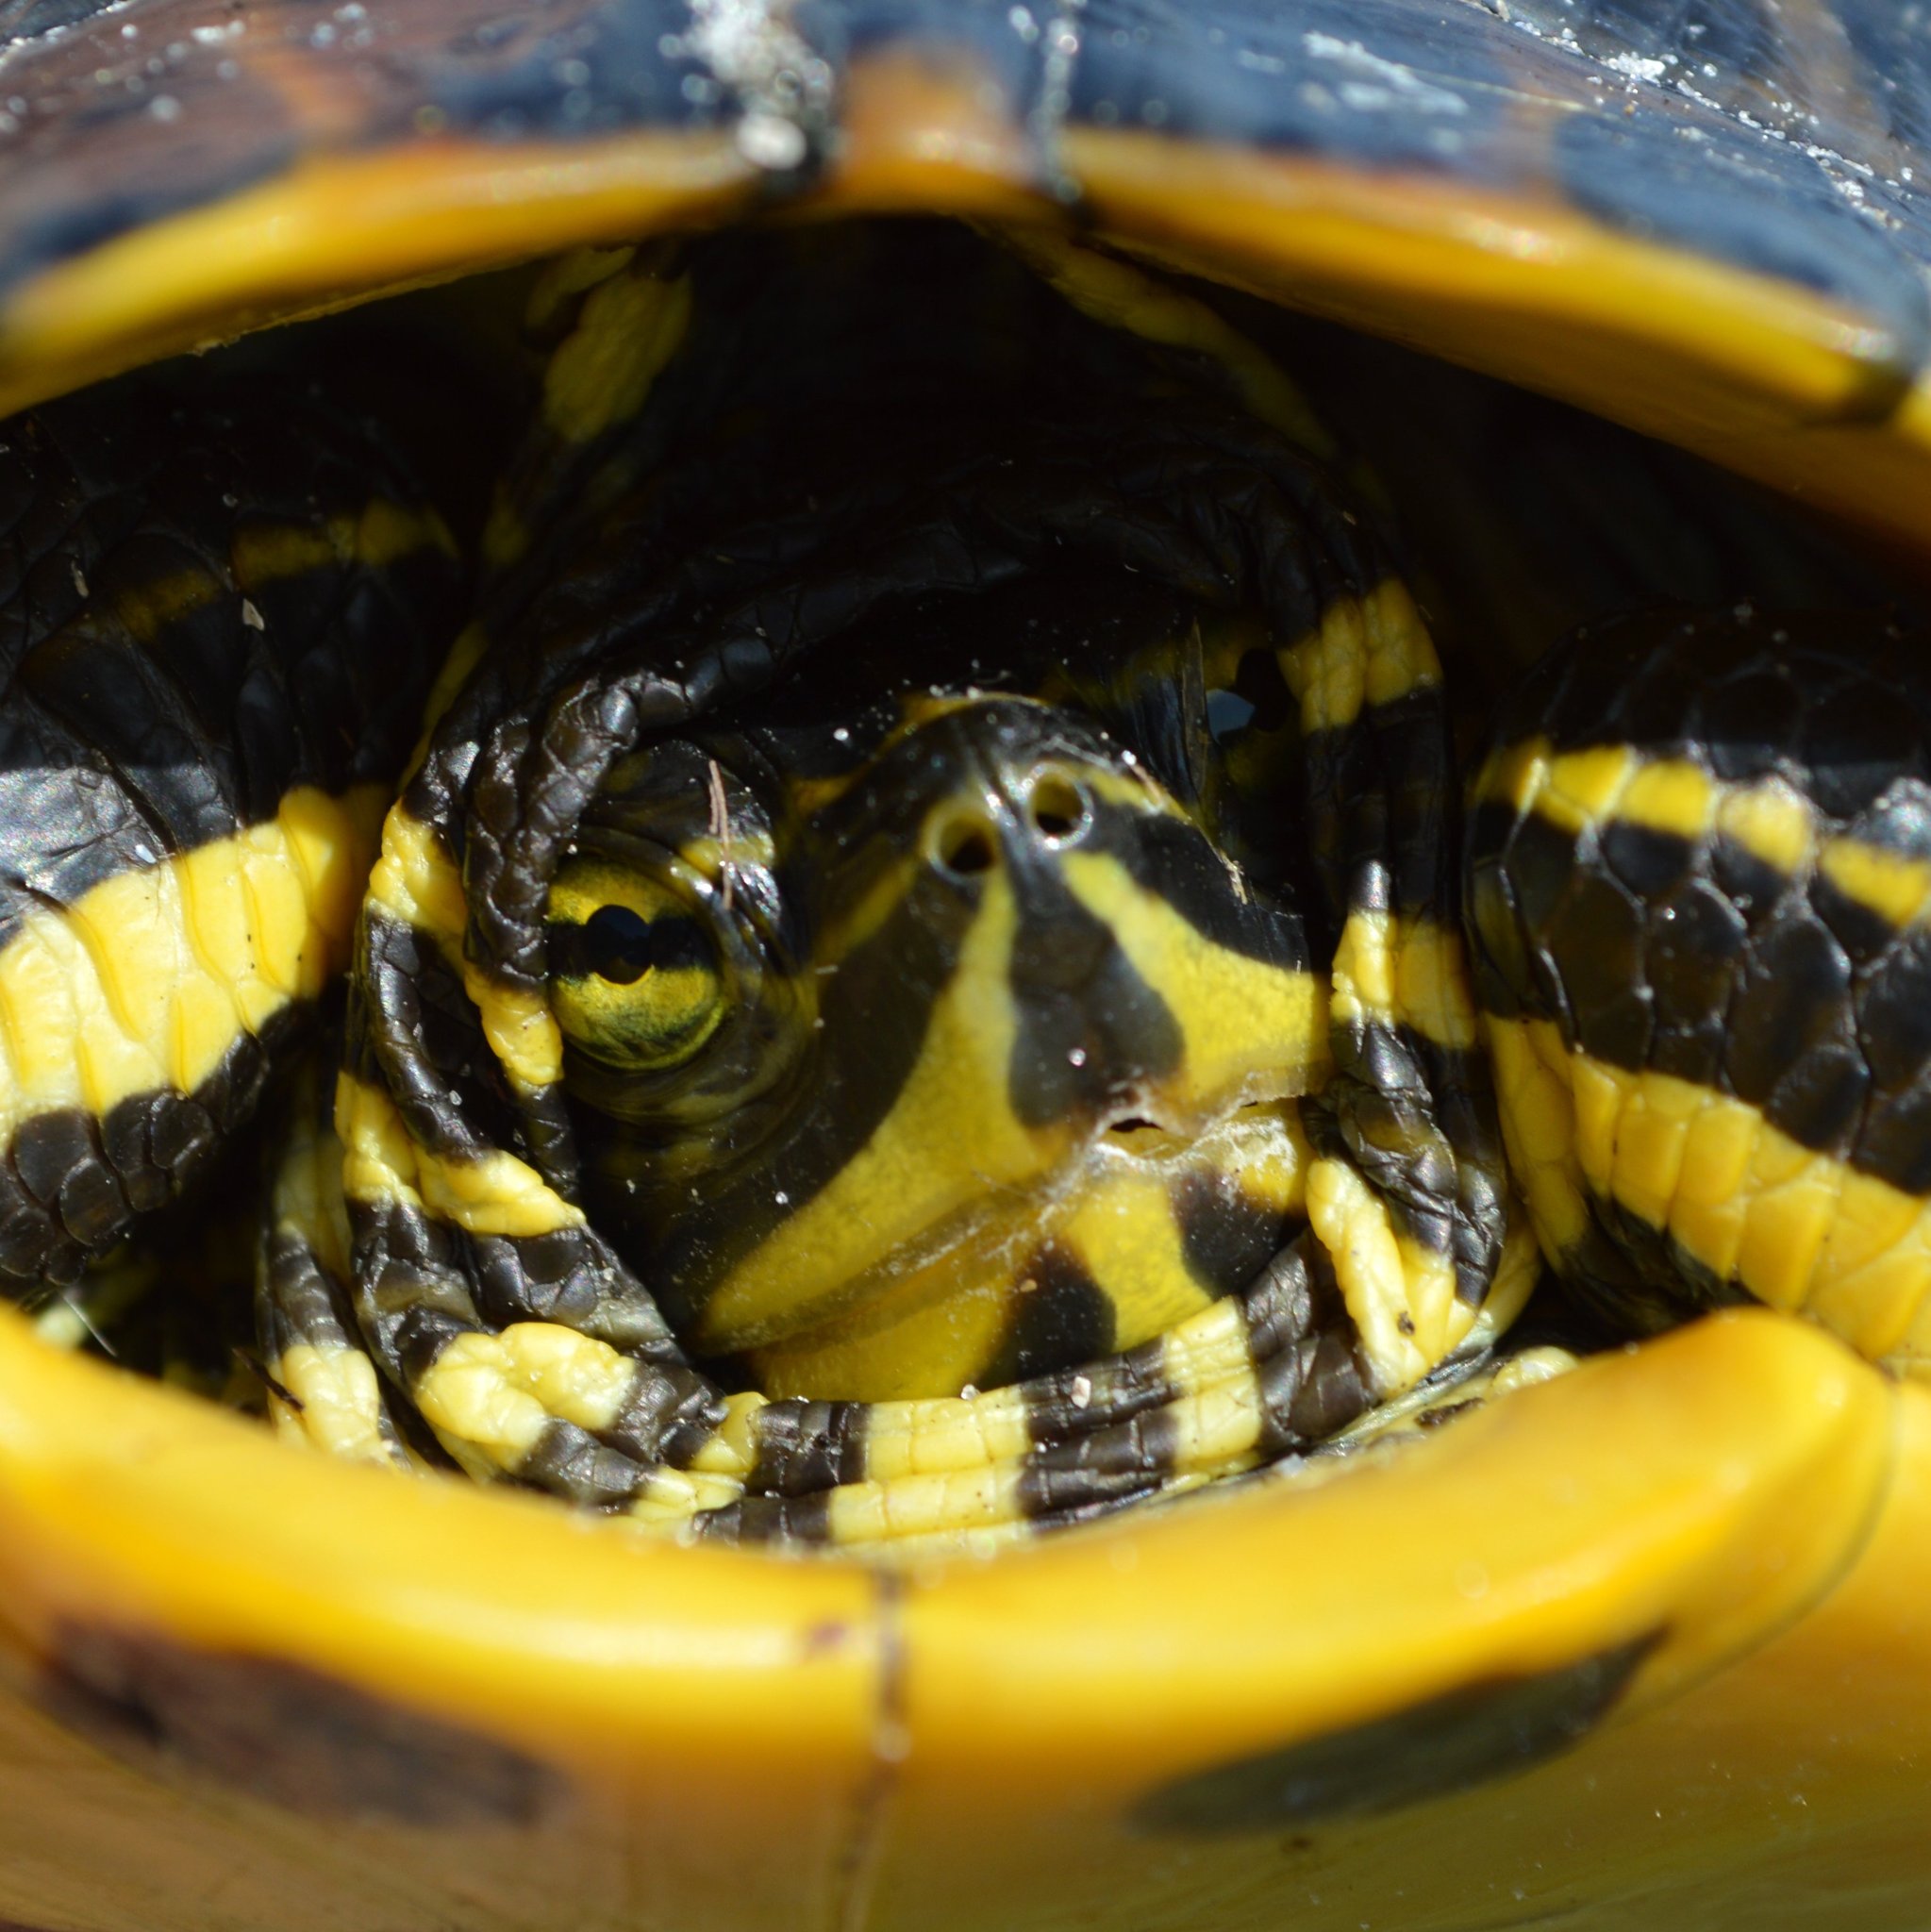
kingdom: Animalia
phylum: Chordata
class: Testudines
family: Emydidae
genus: Trachemys
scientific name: Trachemys scripta
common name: Slider
